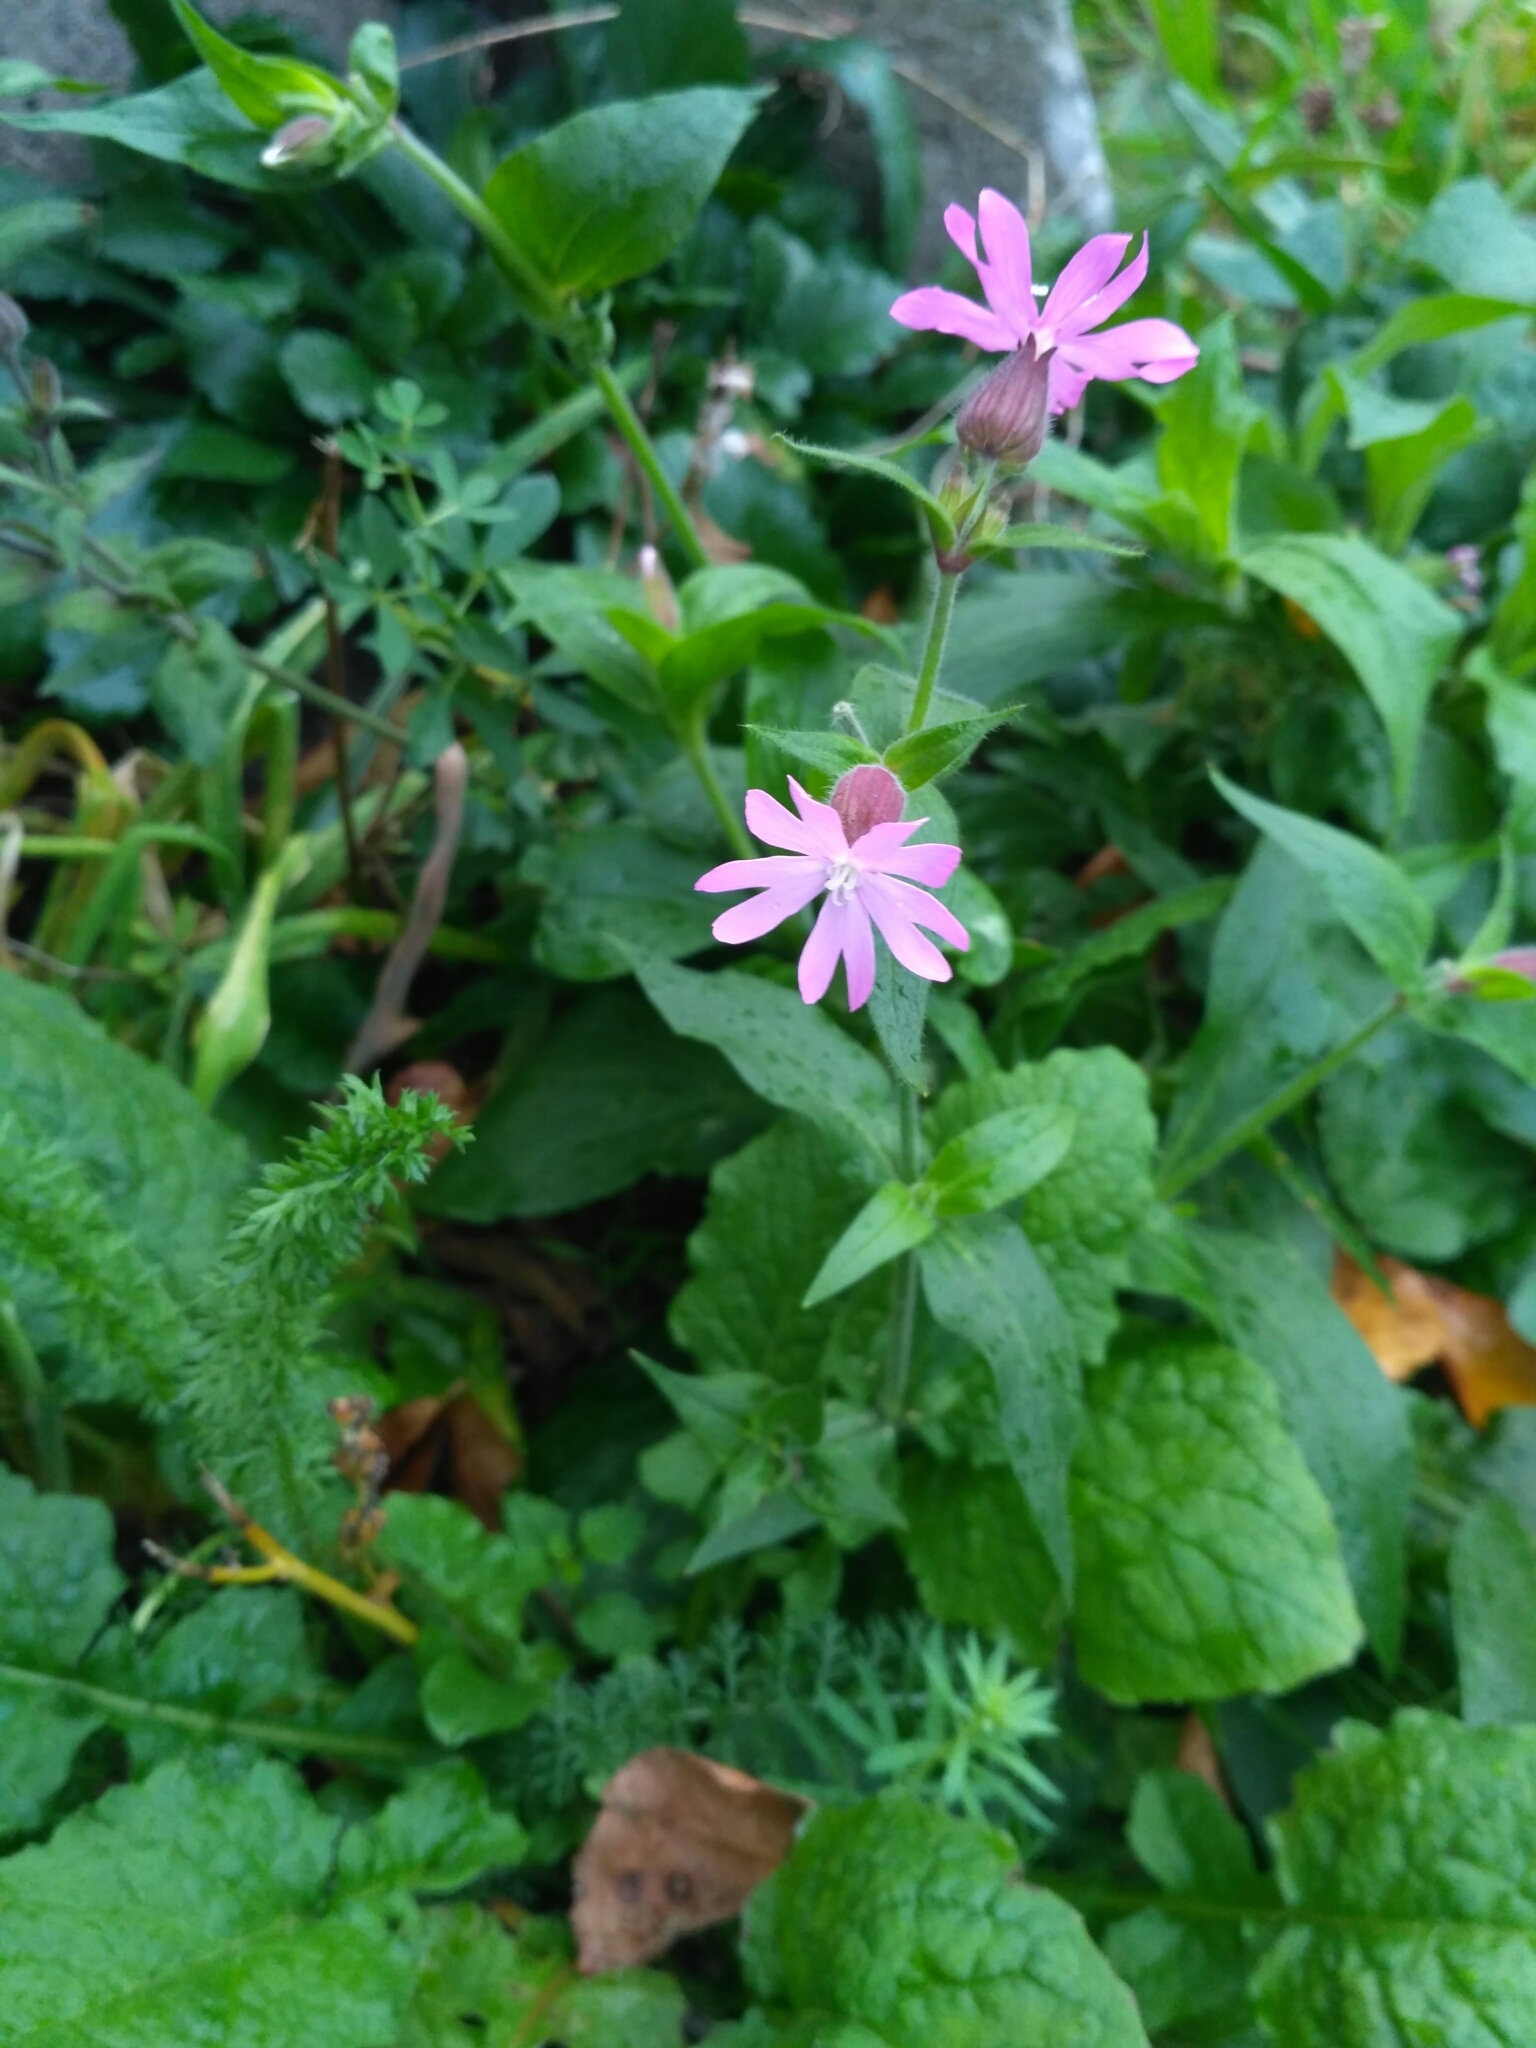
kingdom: Plantae
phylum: Tracheophyta
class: Magnoliopsida
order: Caryophyllales
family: Caryophyllaceae
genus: Silene
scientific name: Silene dioica
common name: Red campion
